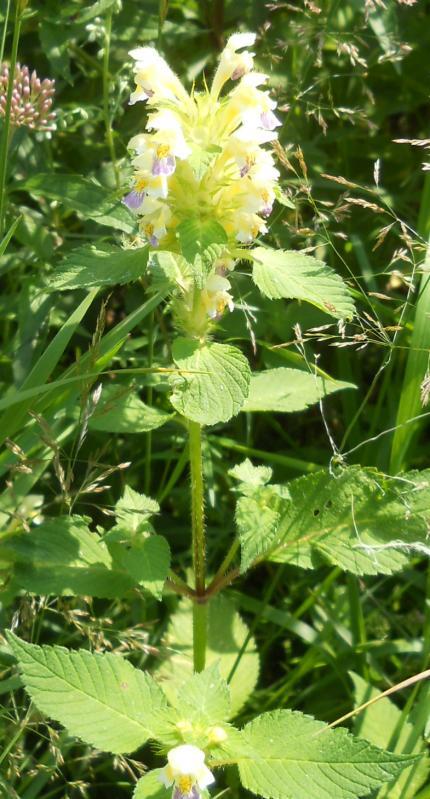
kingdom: Plantae
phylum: Tracheophyta
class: Magnoliopsida
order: Lamiales
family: Lamiaceae
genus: Galeopsis
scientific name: Galeopsis speciosa
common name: Large-flowered hemp-nettle
